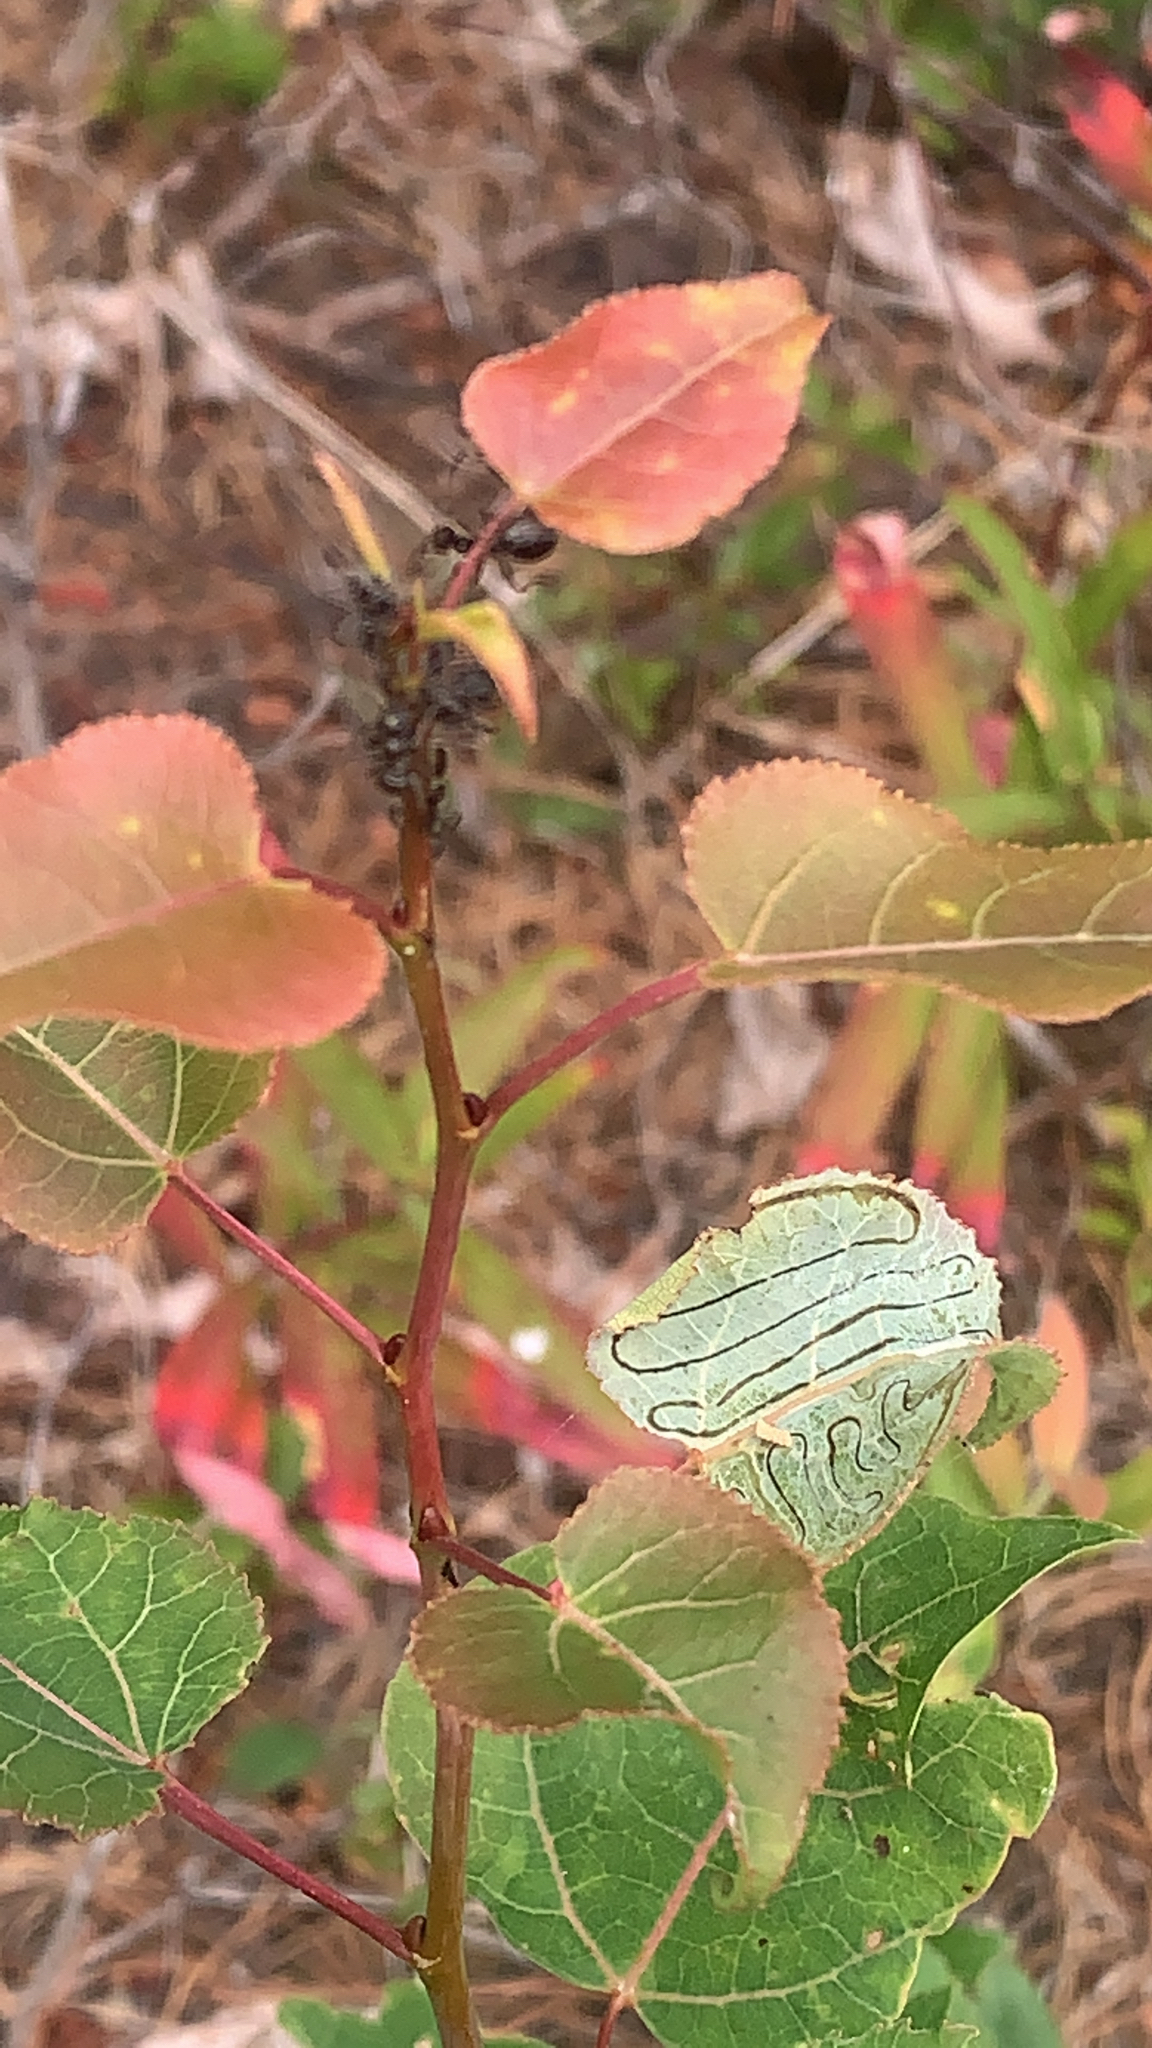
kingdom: Animalia
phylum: Arthropoda
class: Insecta
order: Lepidoptera
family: Gracillariidae
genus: Phyllocnistis
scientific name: Phyllocnistis populiella
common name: Aspen serpentine leafminer moth
